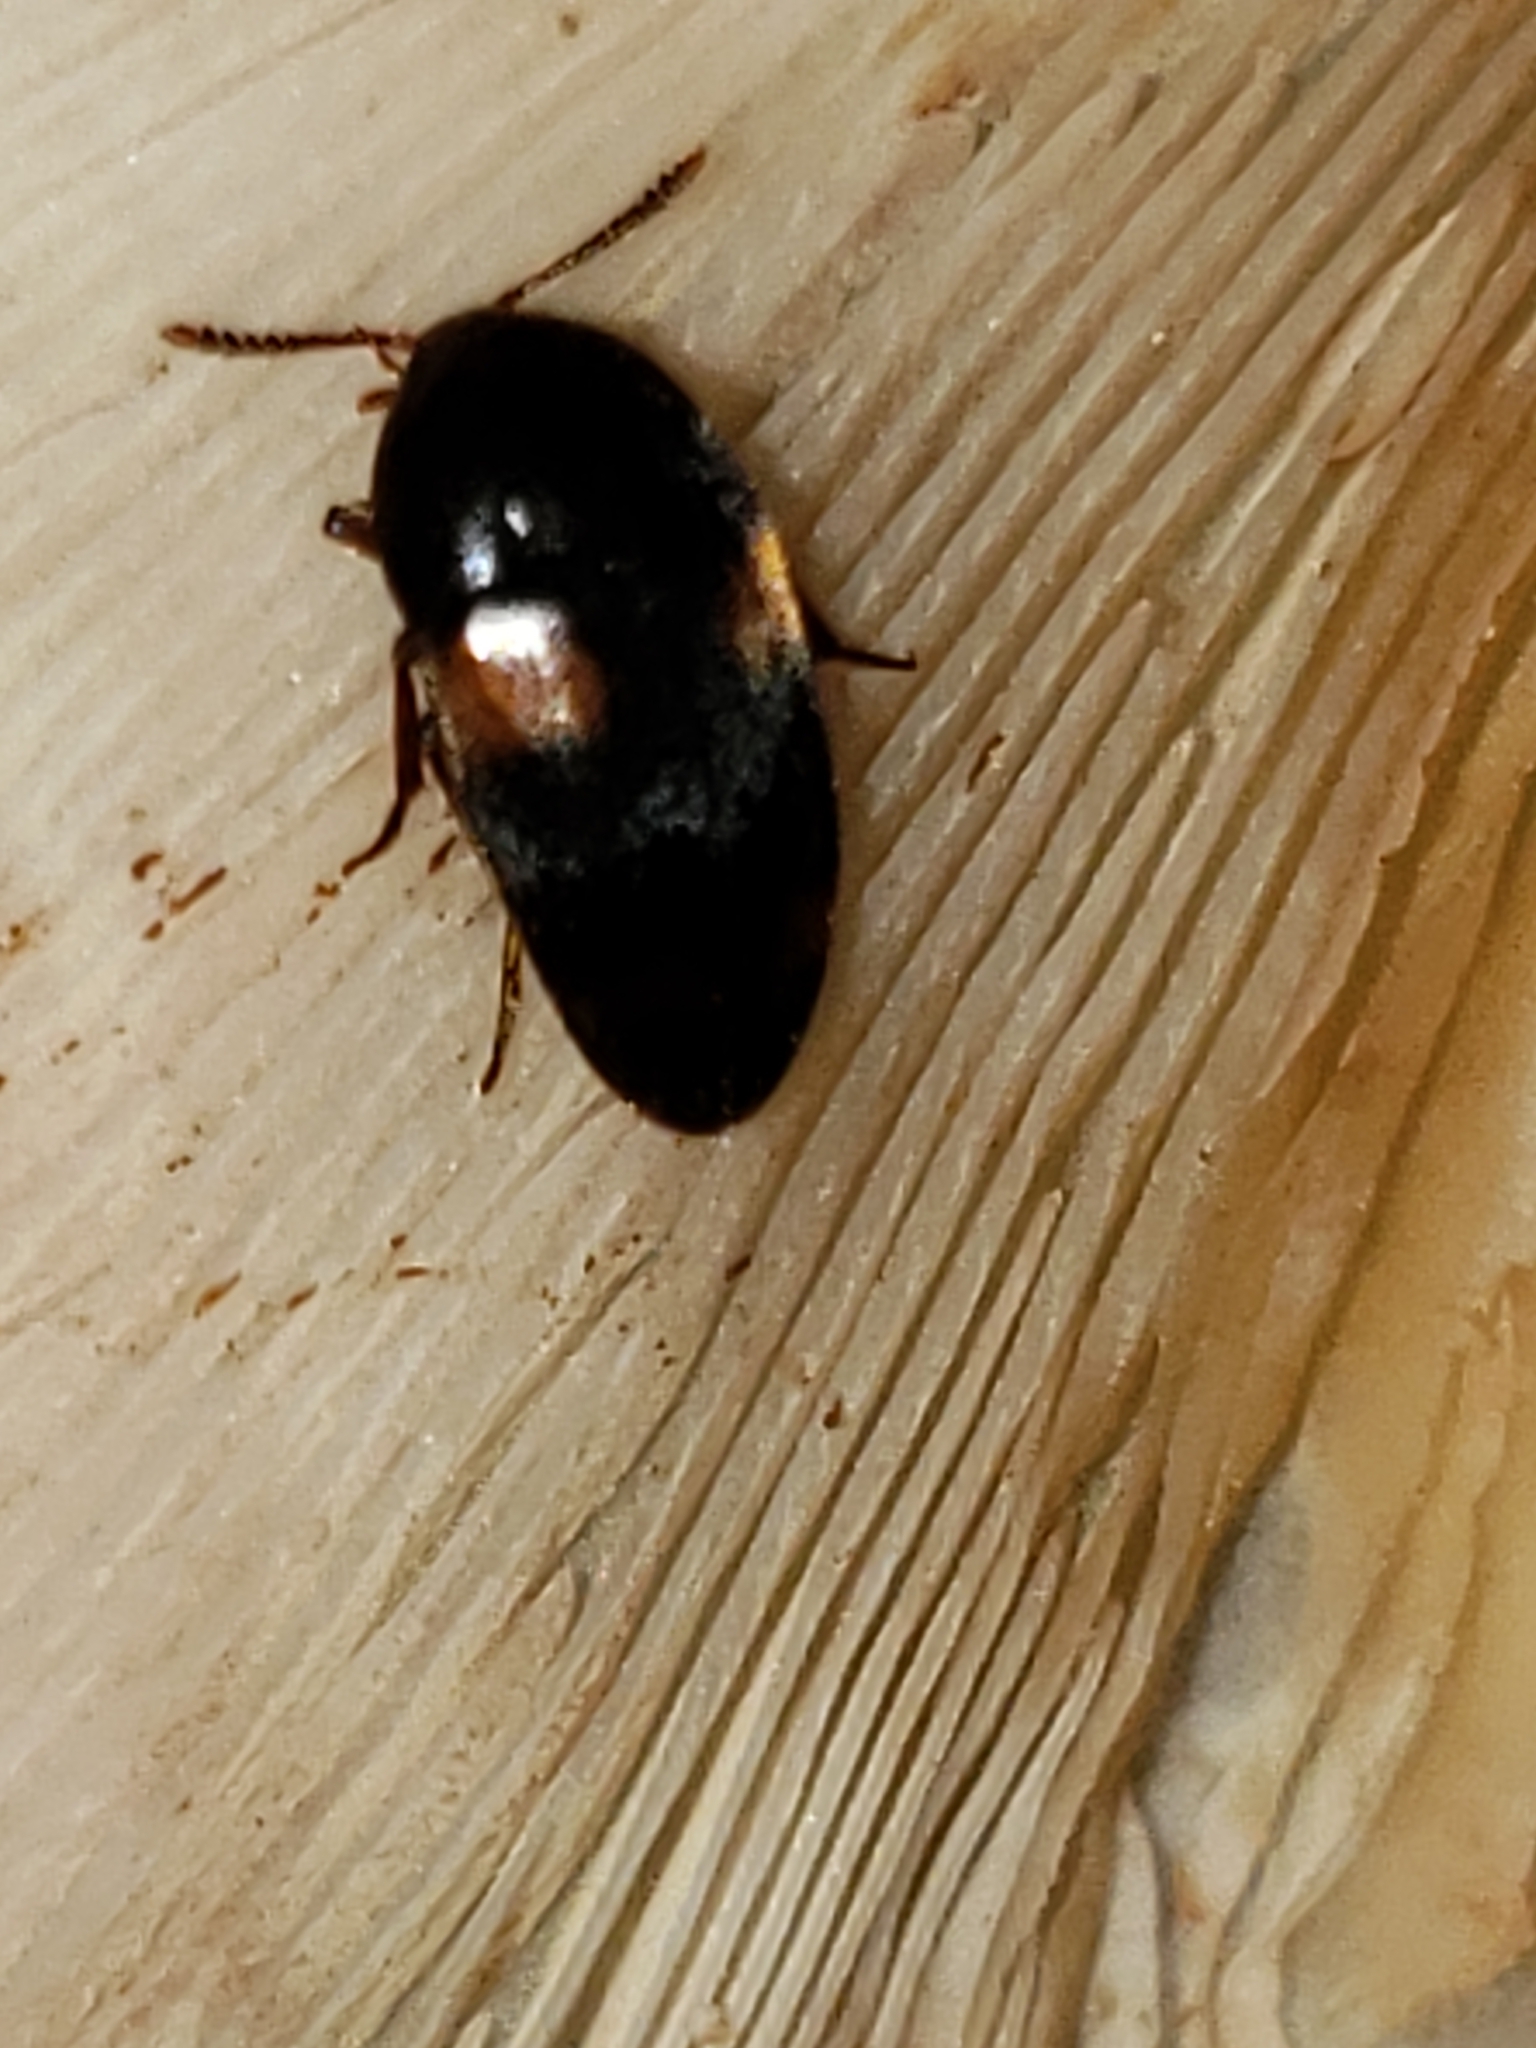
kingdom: Animalia
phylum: Arthropoda
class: Insecta
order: Coleoptera
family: Tetratomidae
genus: Holostrophus
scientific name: Holostrophus bifasciatus
